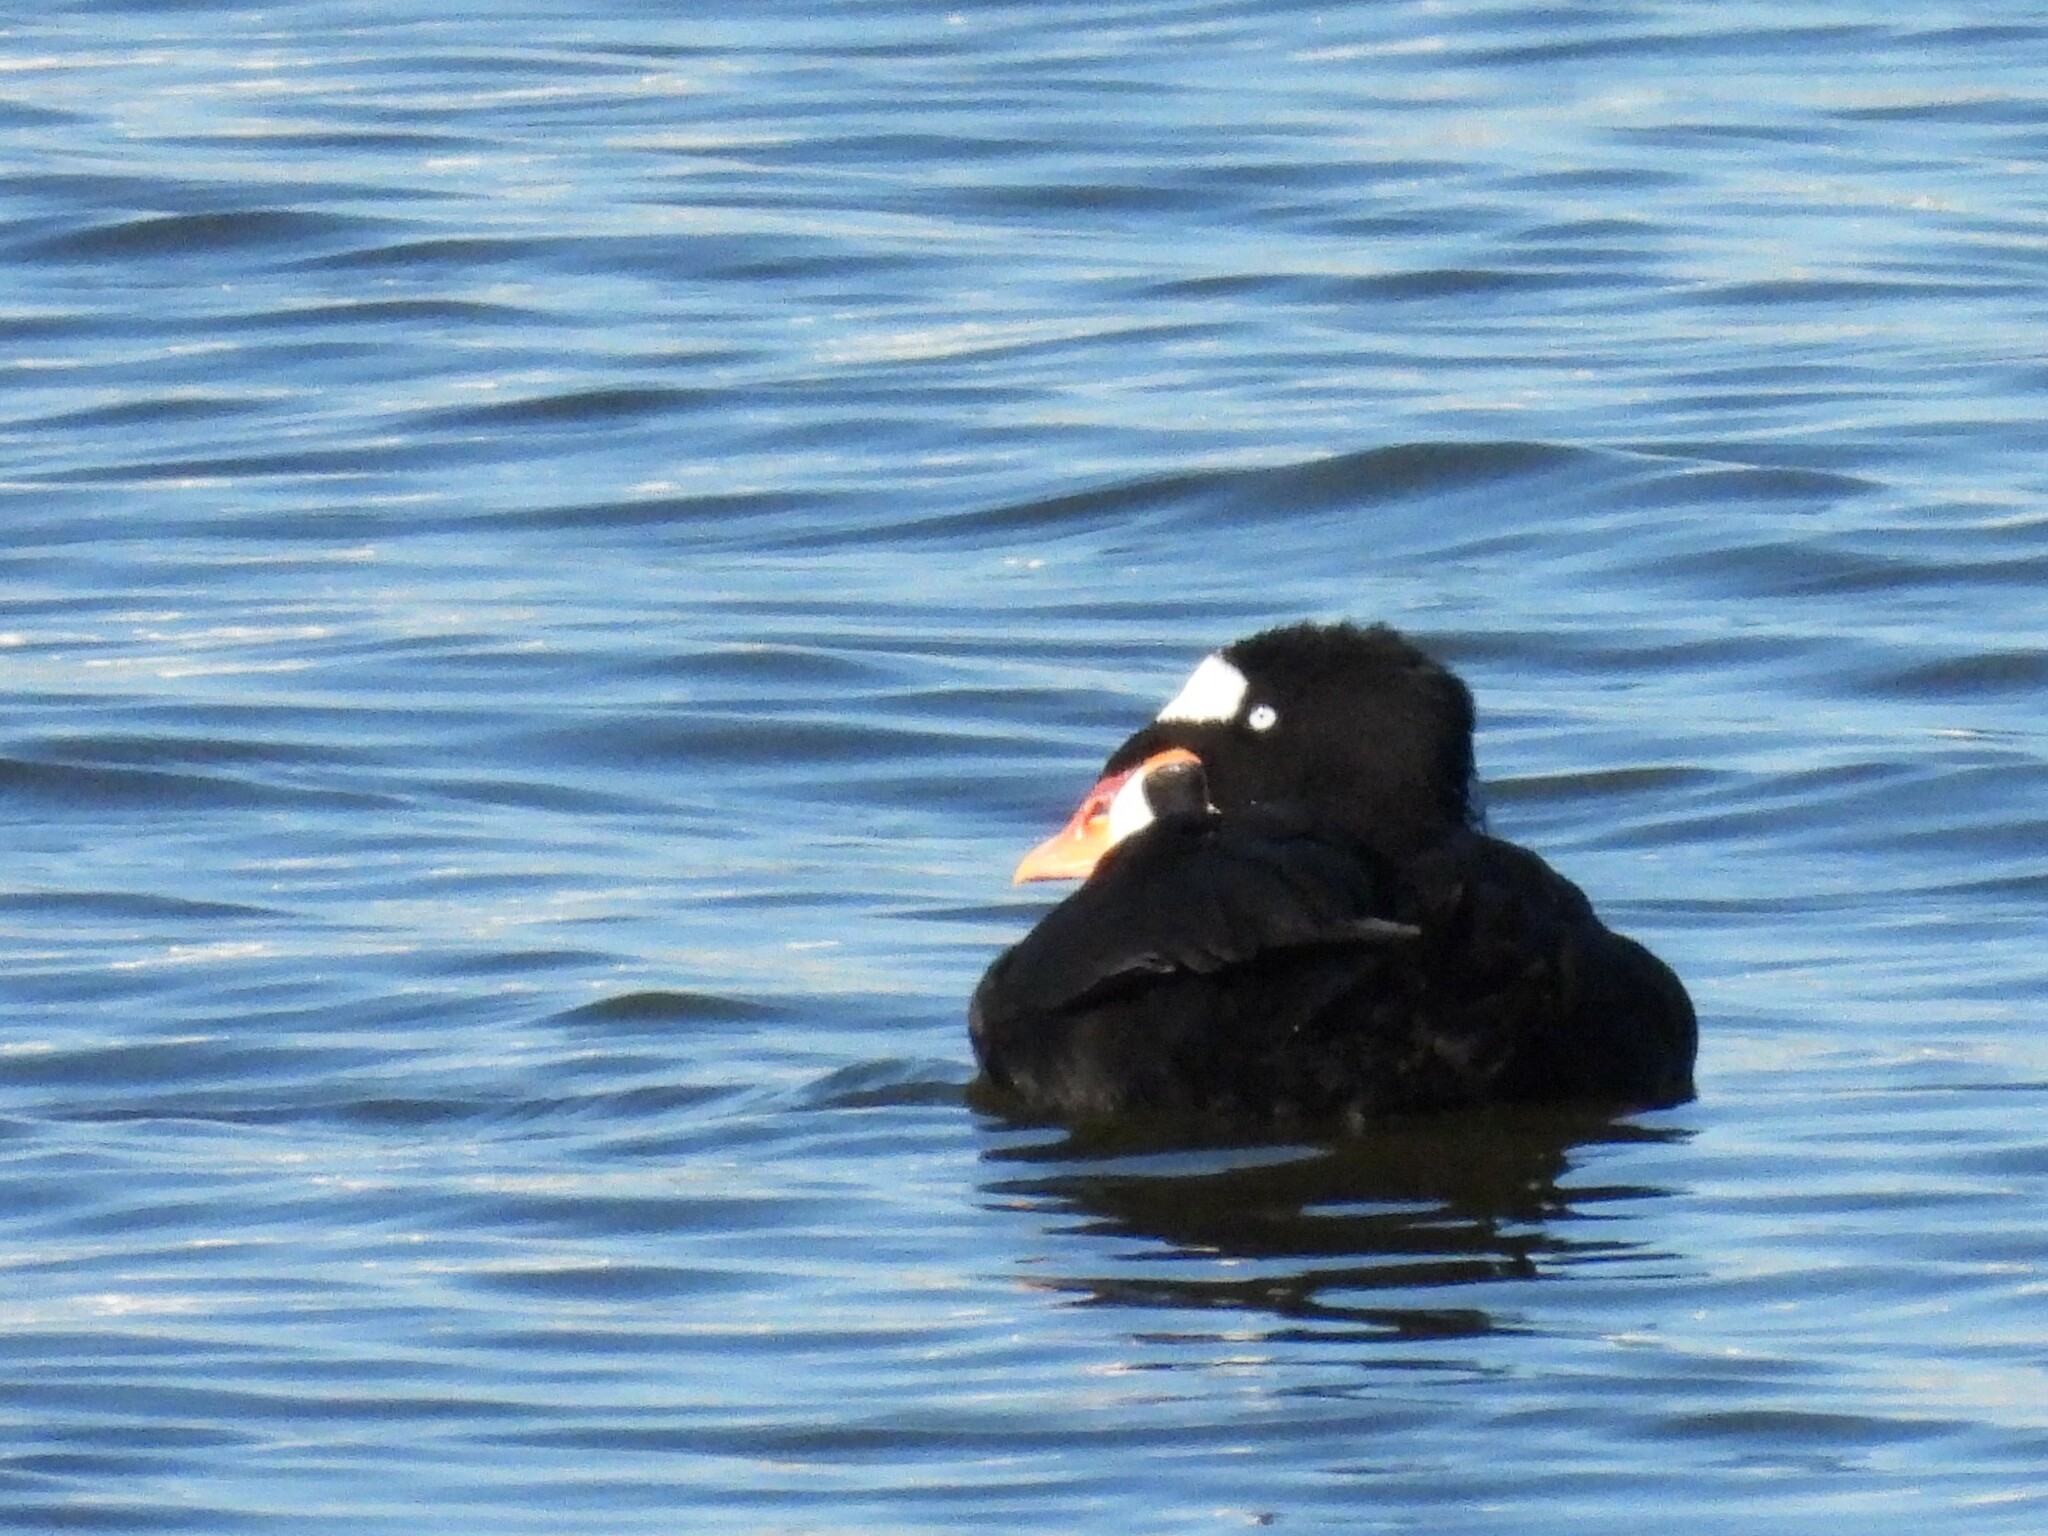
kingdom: Animalia
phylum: Chordata
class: Aves
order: Anseriformes
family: Anatidae
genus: Melanitta
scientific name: Melanitta perspicillata
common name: Surf scoter
